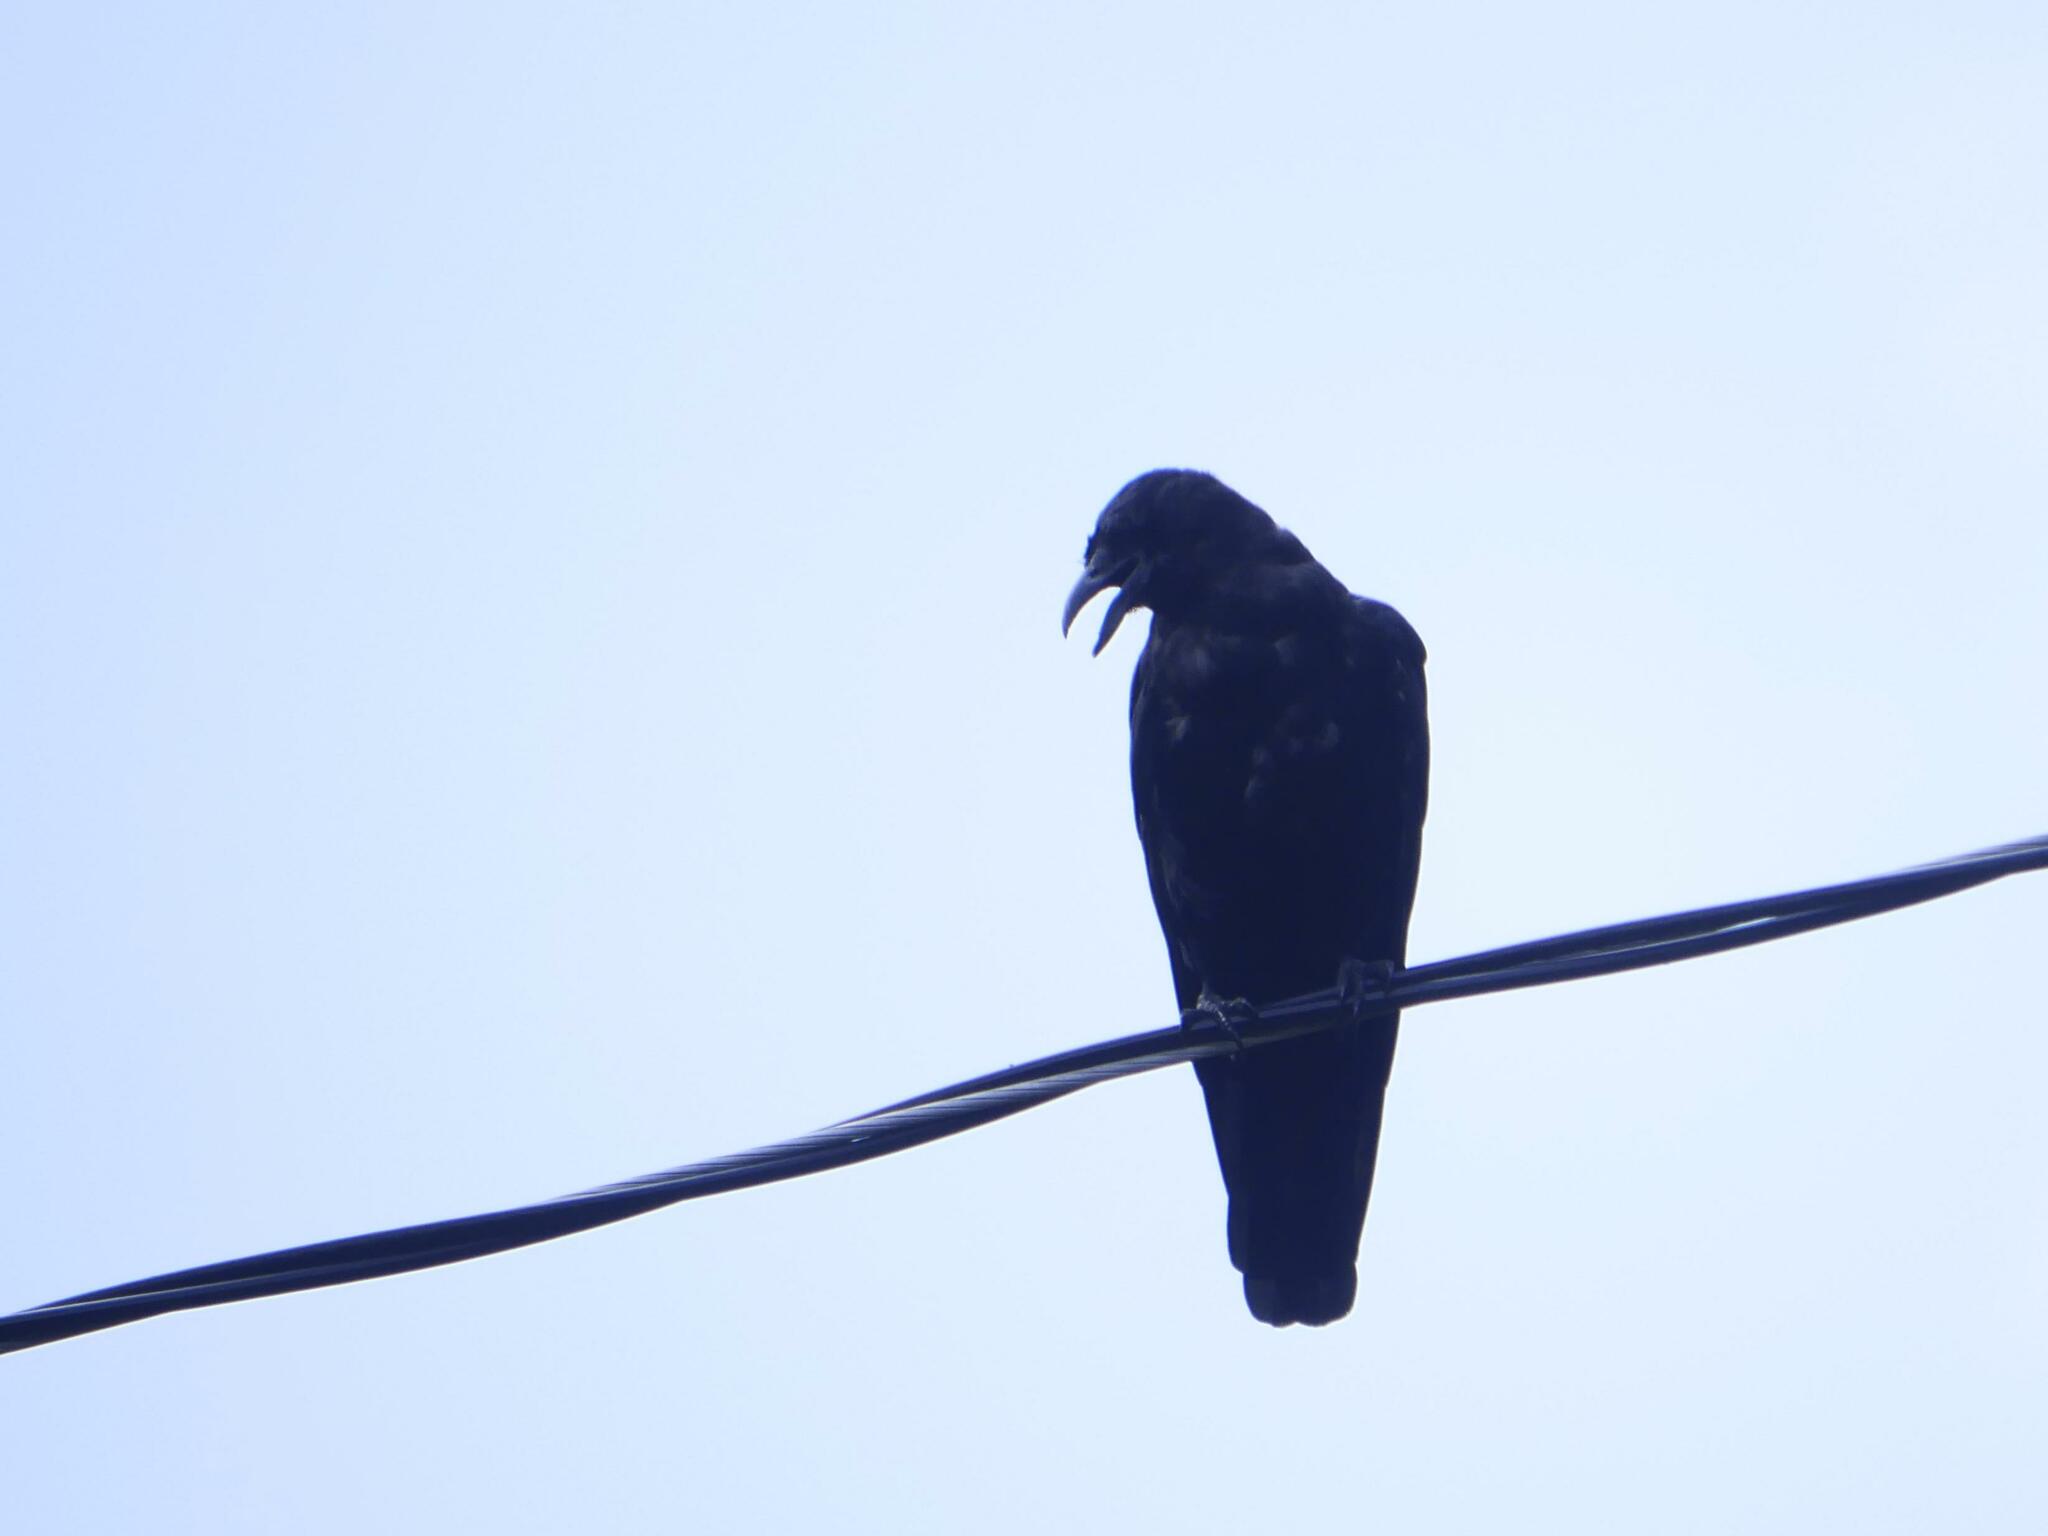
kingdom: Animalia
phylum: Chordata
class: Aves
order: Passeriformes
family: Corvidae
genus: Corvus
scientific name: Corvus brachyrhynchos
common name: American crow
